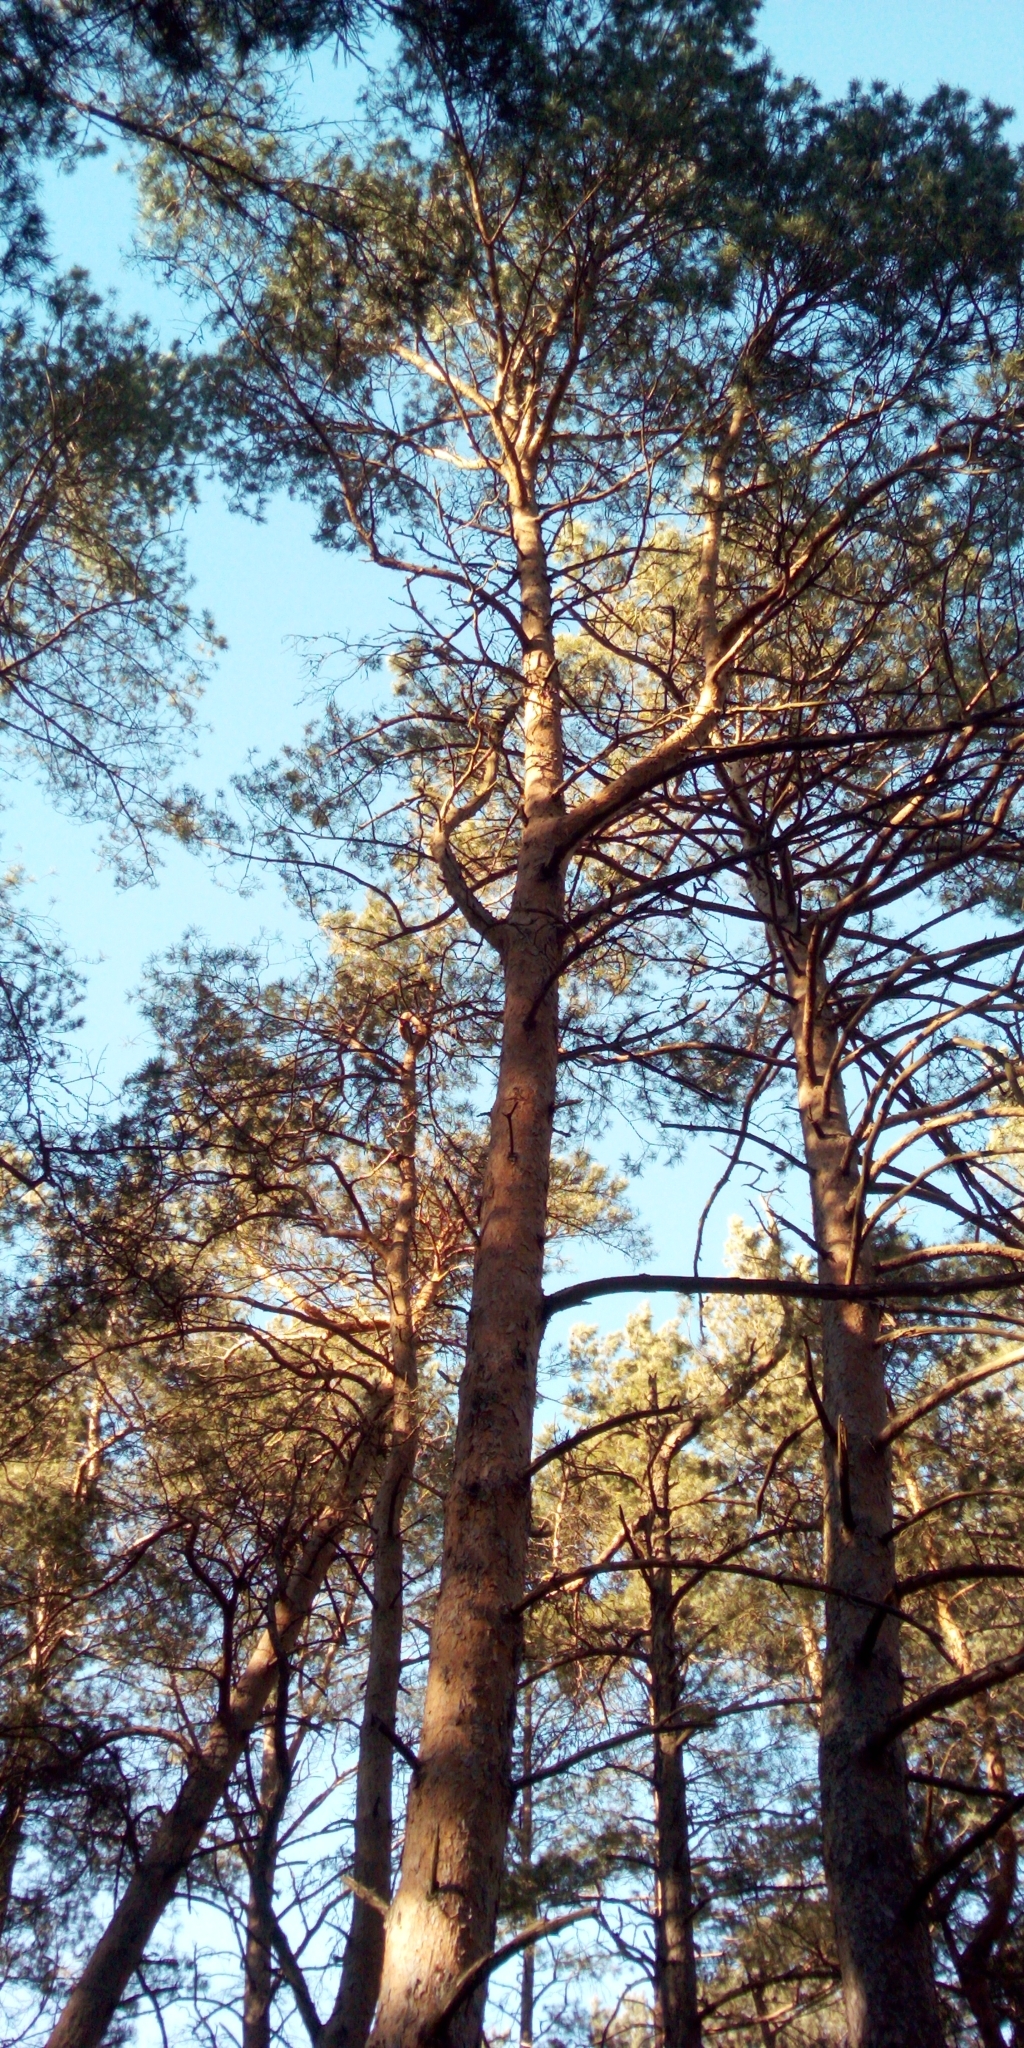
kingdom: Plantae
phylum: Tracheophyta
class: Pinopsida
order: Pinales
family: Pinaceae
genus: Pinus
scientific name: Pinus sylvestris
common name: Scots pine
